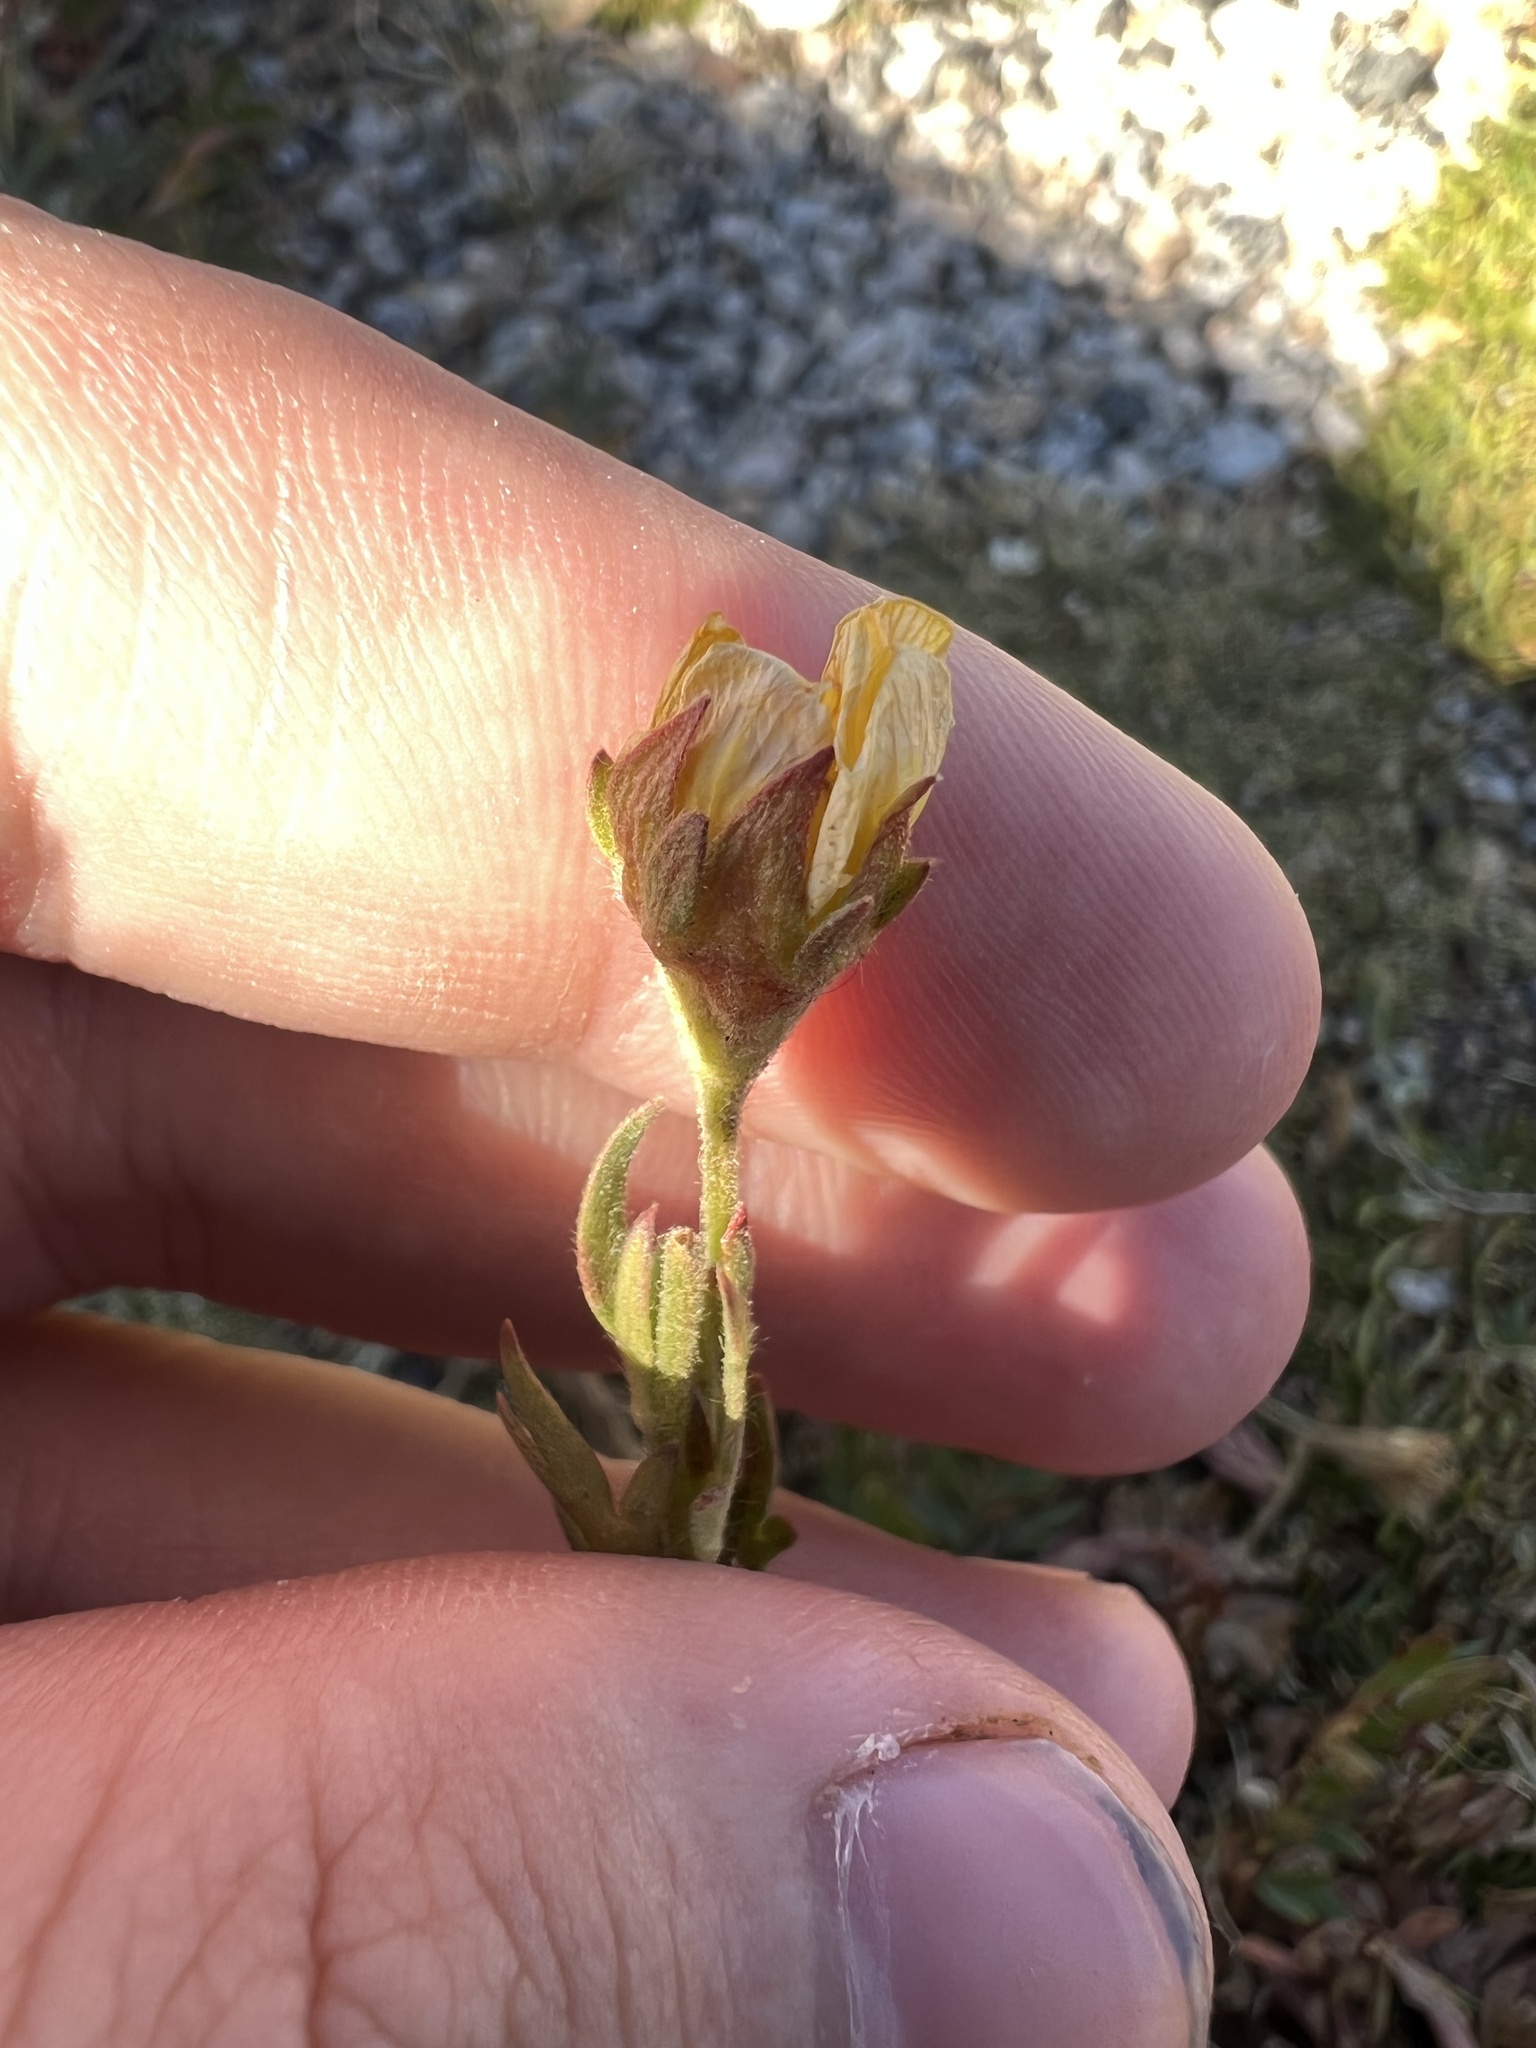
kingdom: Plantae
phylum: Tracheophyta
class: Magnoliopsida
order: Rosales
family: Rosaceae
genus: Geum
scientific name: Geum rossii
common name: Alpine avens
